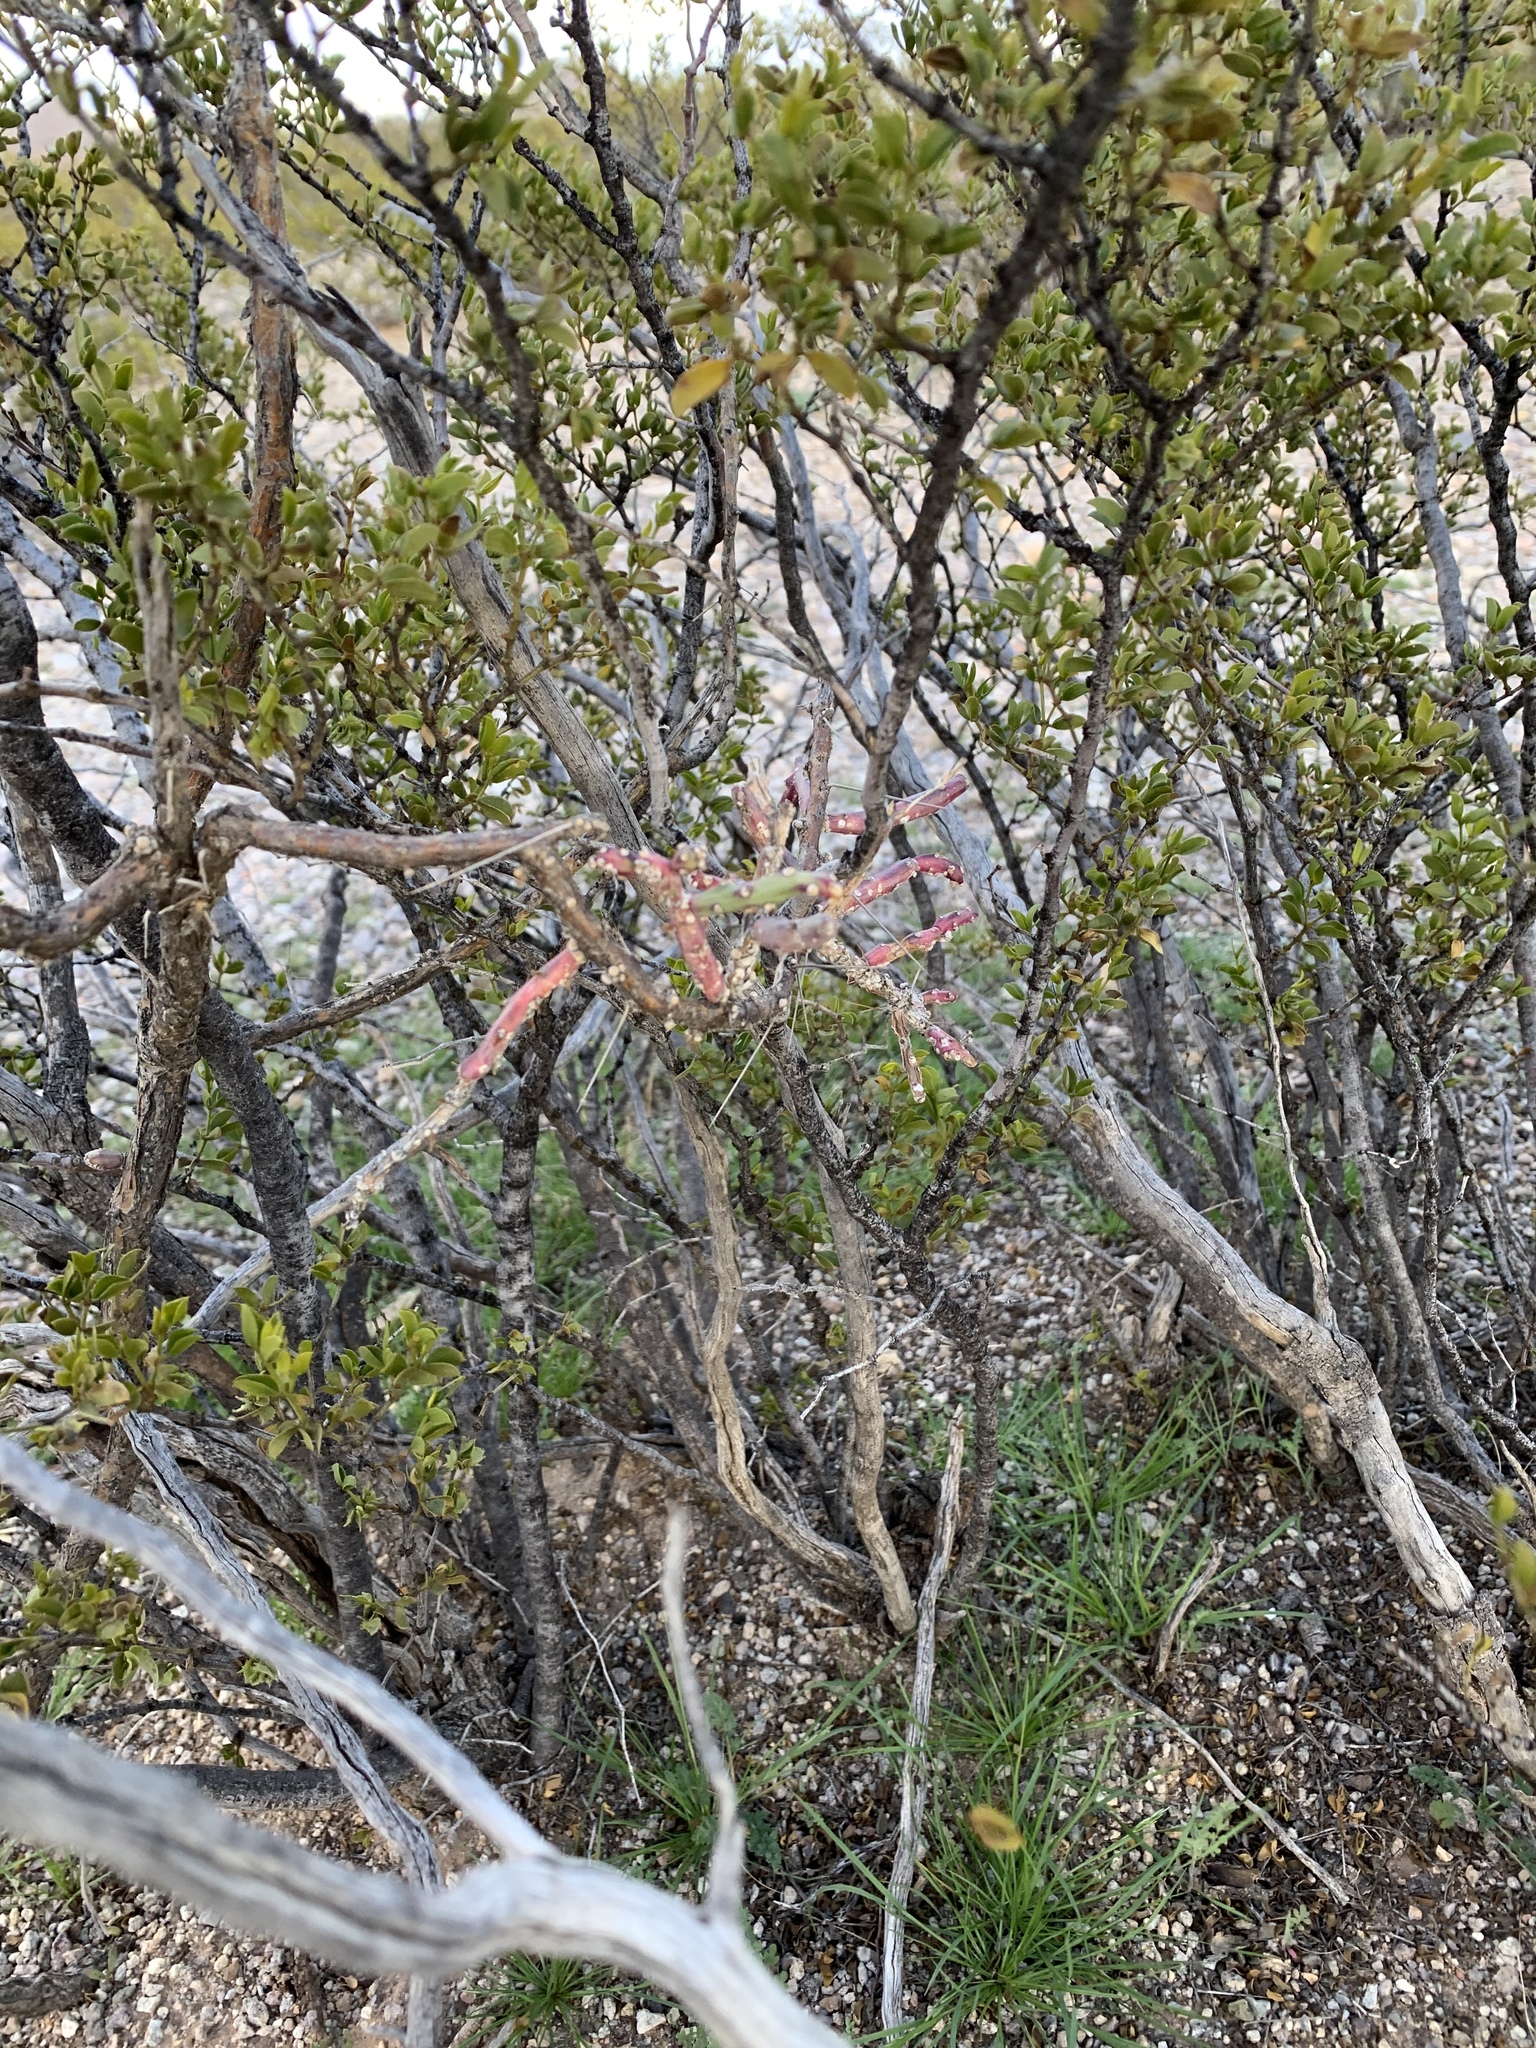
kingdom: Plantae
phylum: Tracheophyta
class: Magnoliopsida
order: Caryophyllales
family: Cactaceae
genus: Cylindropuntia
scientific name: Cylindropuntia leptocaulis
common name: Christmas cactus
